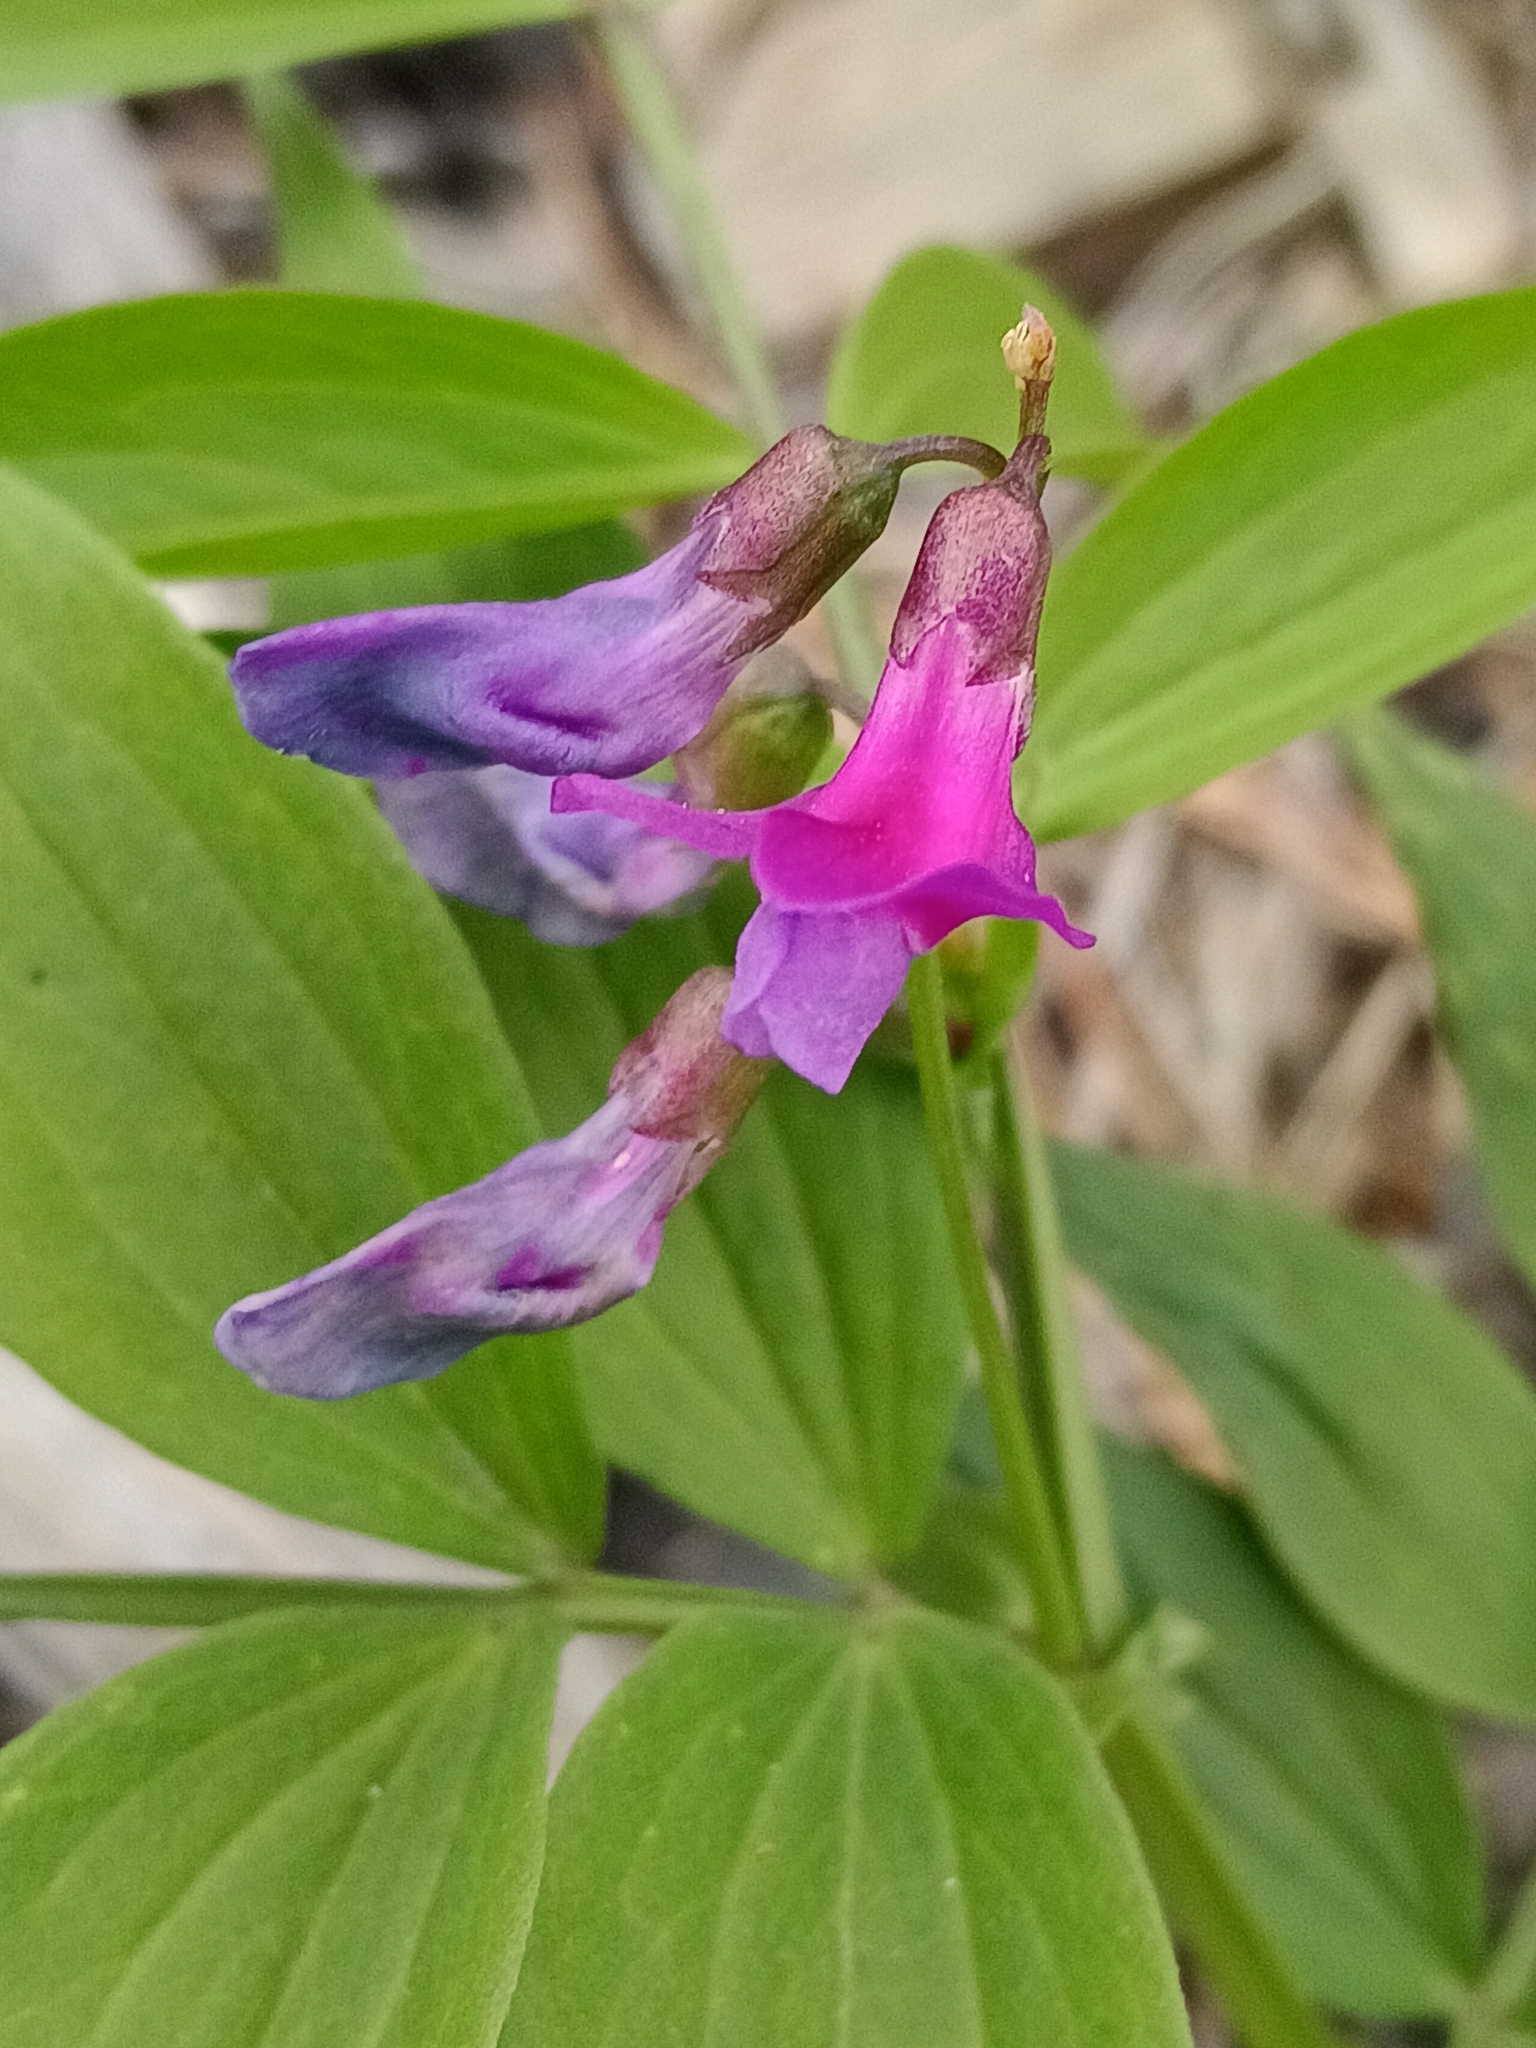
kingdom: Plantae
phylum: Tracheophyta
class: Magnoliopsida
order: Fabales
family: Fabaceae
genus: Lathyrus
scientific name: Lathyrus vernus
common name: Spring pea
